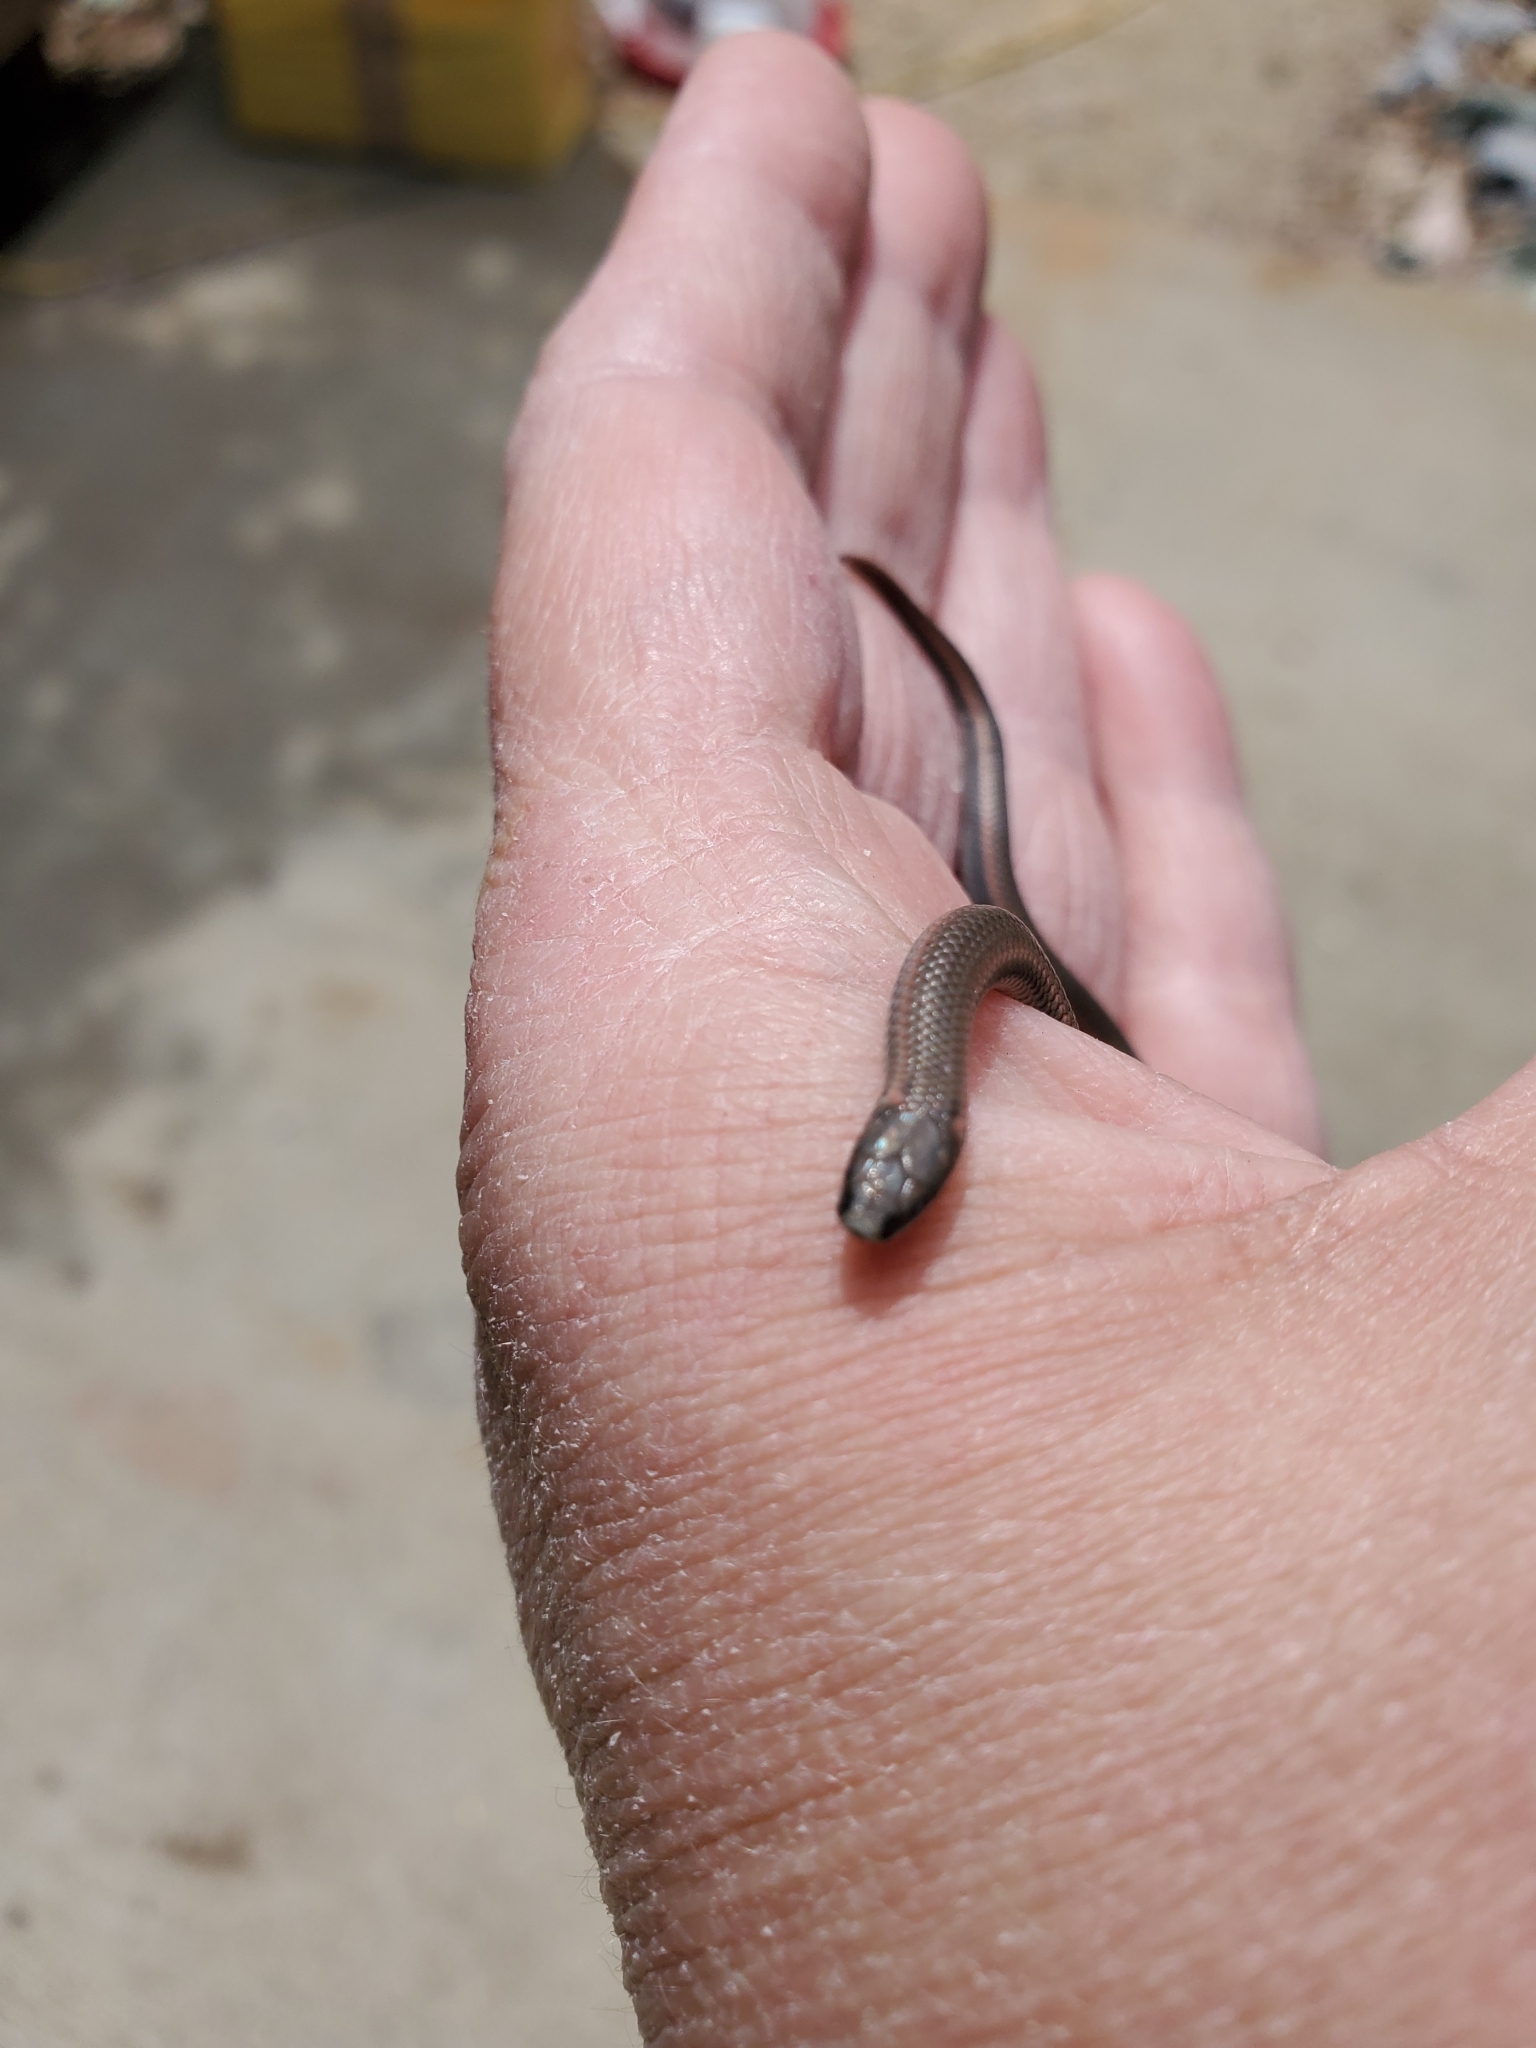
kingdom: Animalia
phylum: Chordata
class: Squamata
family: Colubridae
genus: Contia
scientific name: Contia tenuis
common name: Sharptail snake
